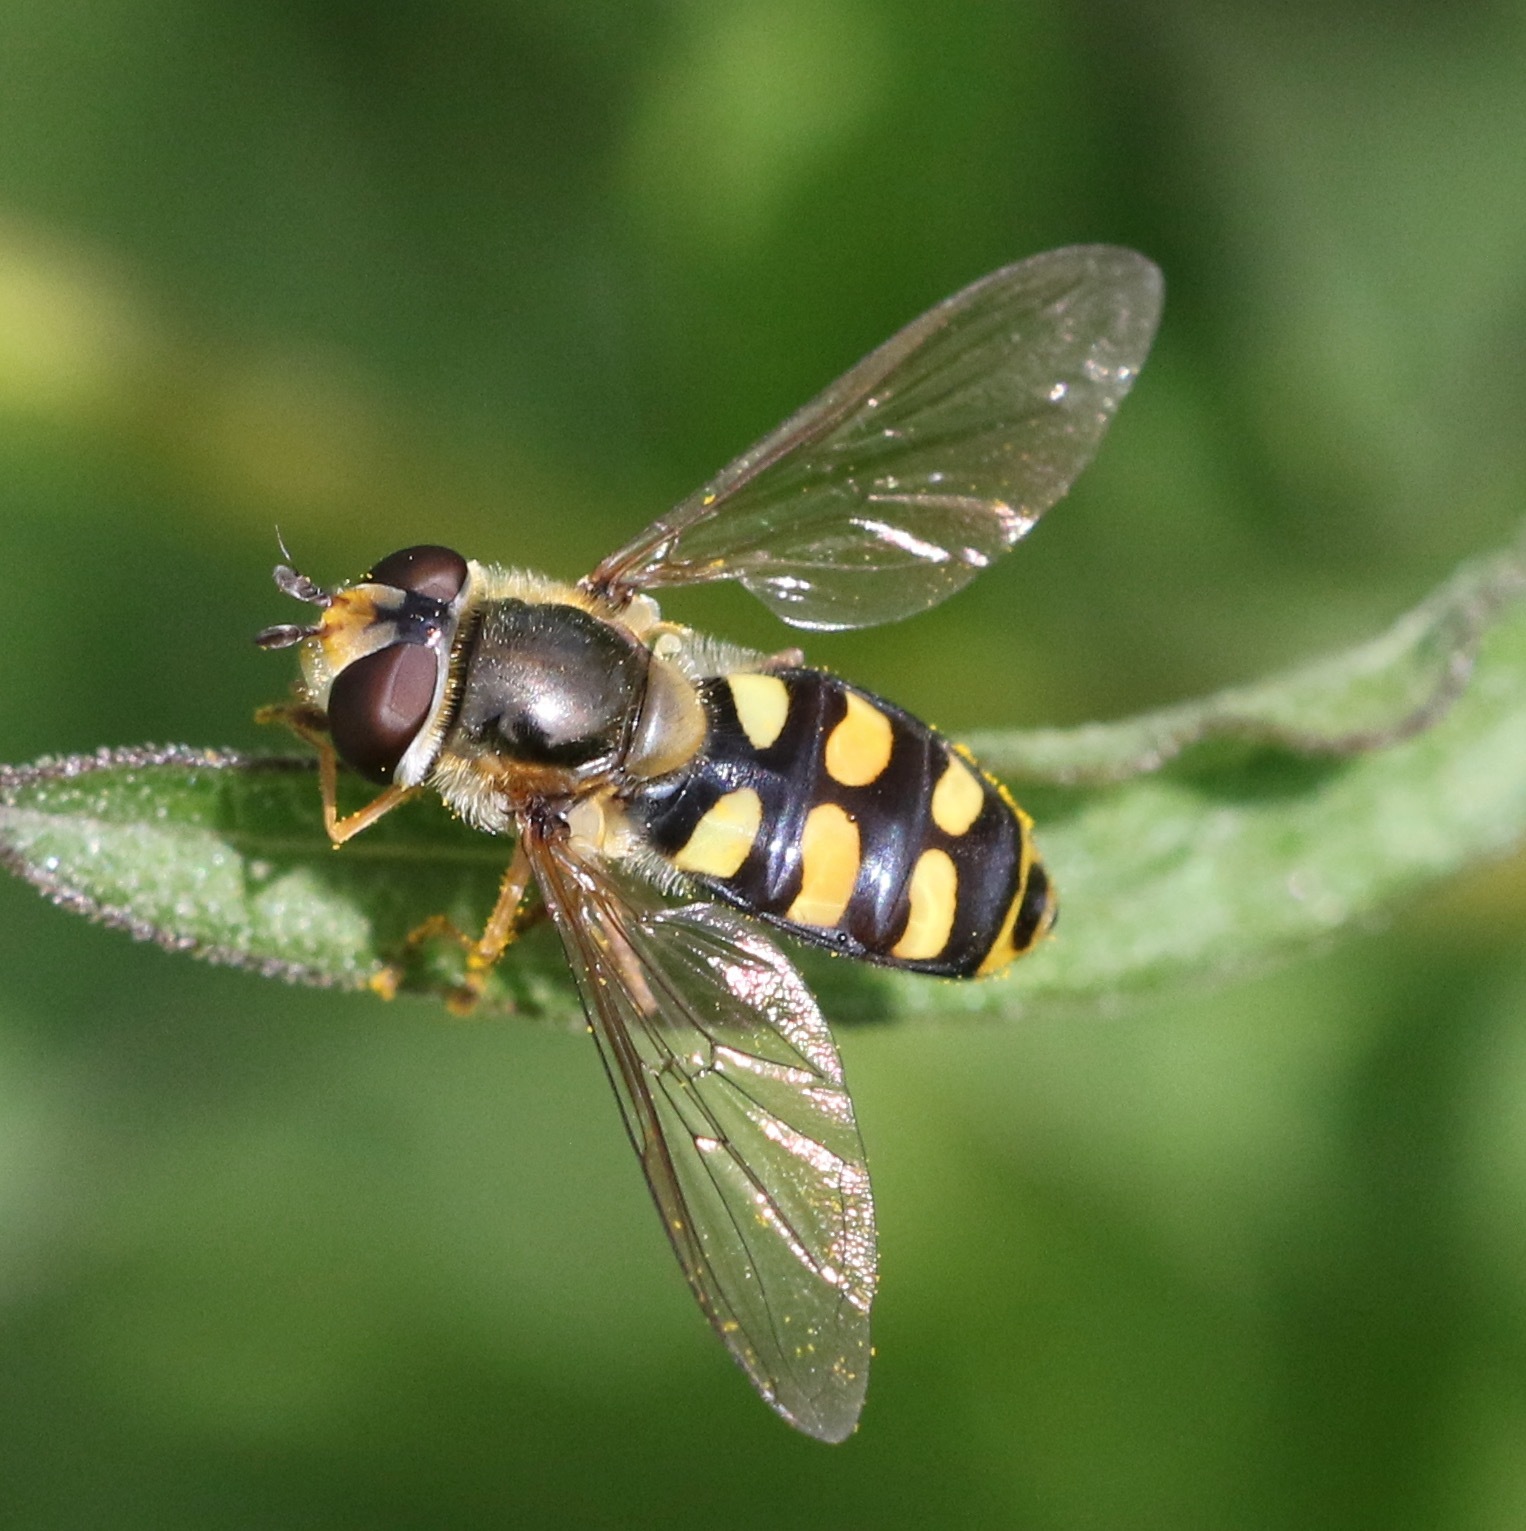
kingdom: Animalia
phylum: Arthropoda
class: Insecta
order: Diptera
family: Syrphidae
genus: Eupeodes
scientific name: Eupeodes luniger
